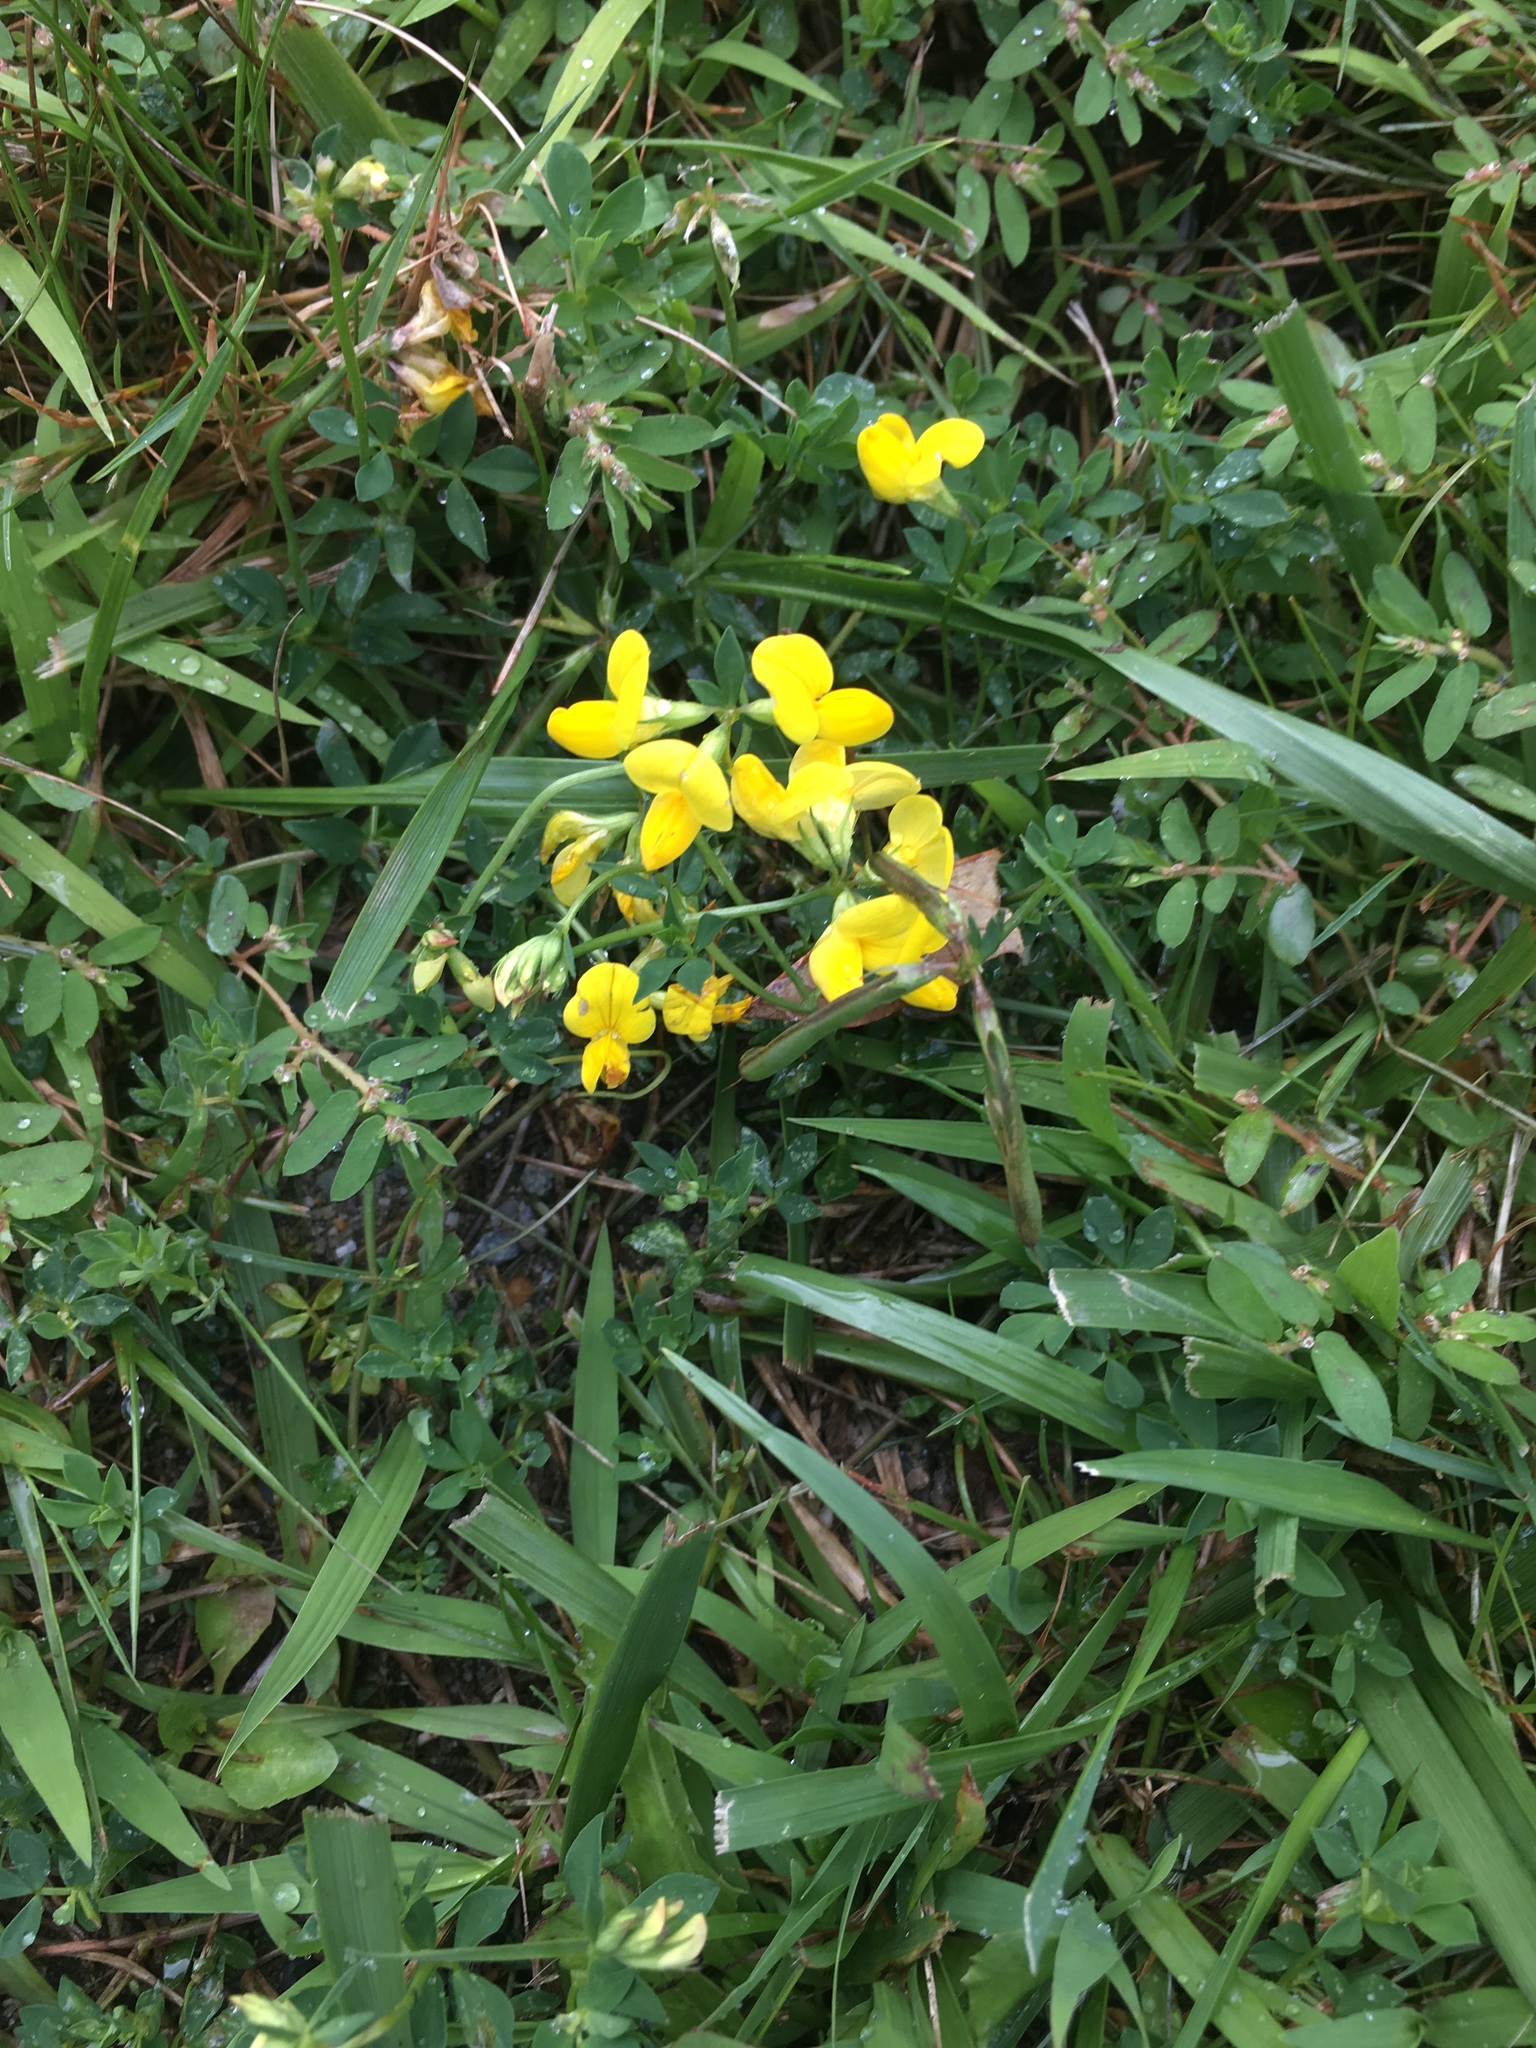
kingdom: Plantae
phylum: Tracheophyta
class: Magnoliopsida
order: Fabales
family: Fabaceae
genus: Lotus
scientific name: Lotus corniculatus
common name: Common bird's-foot-trefoil
